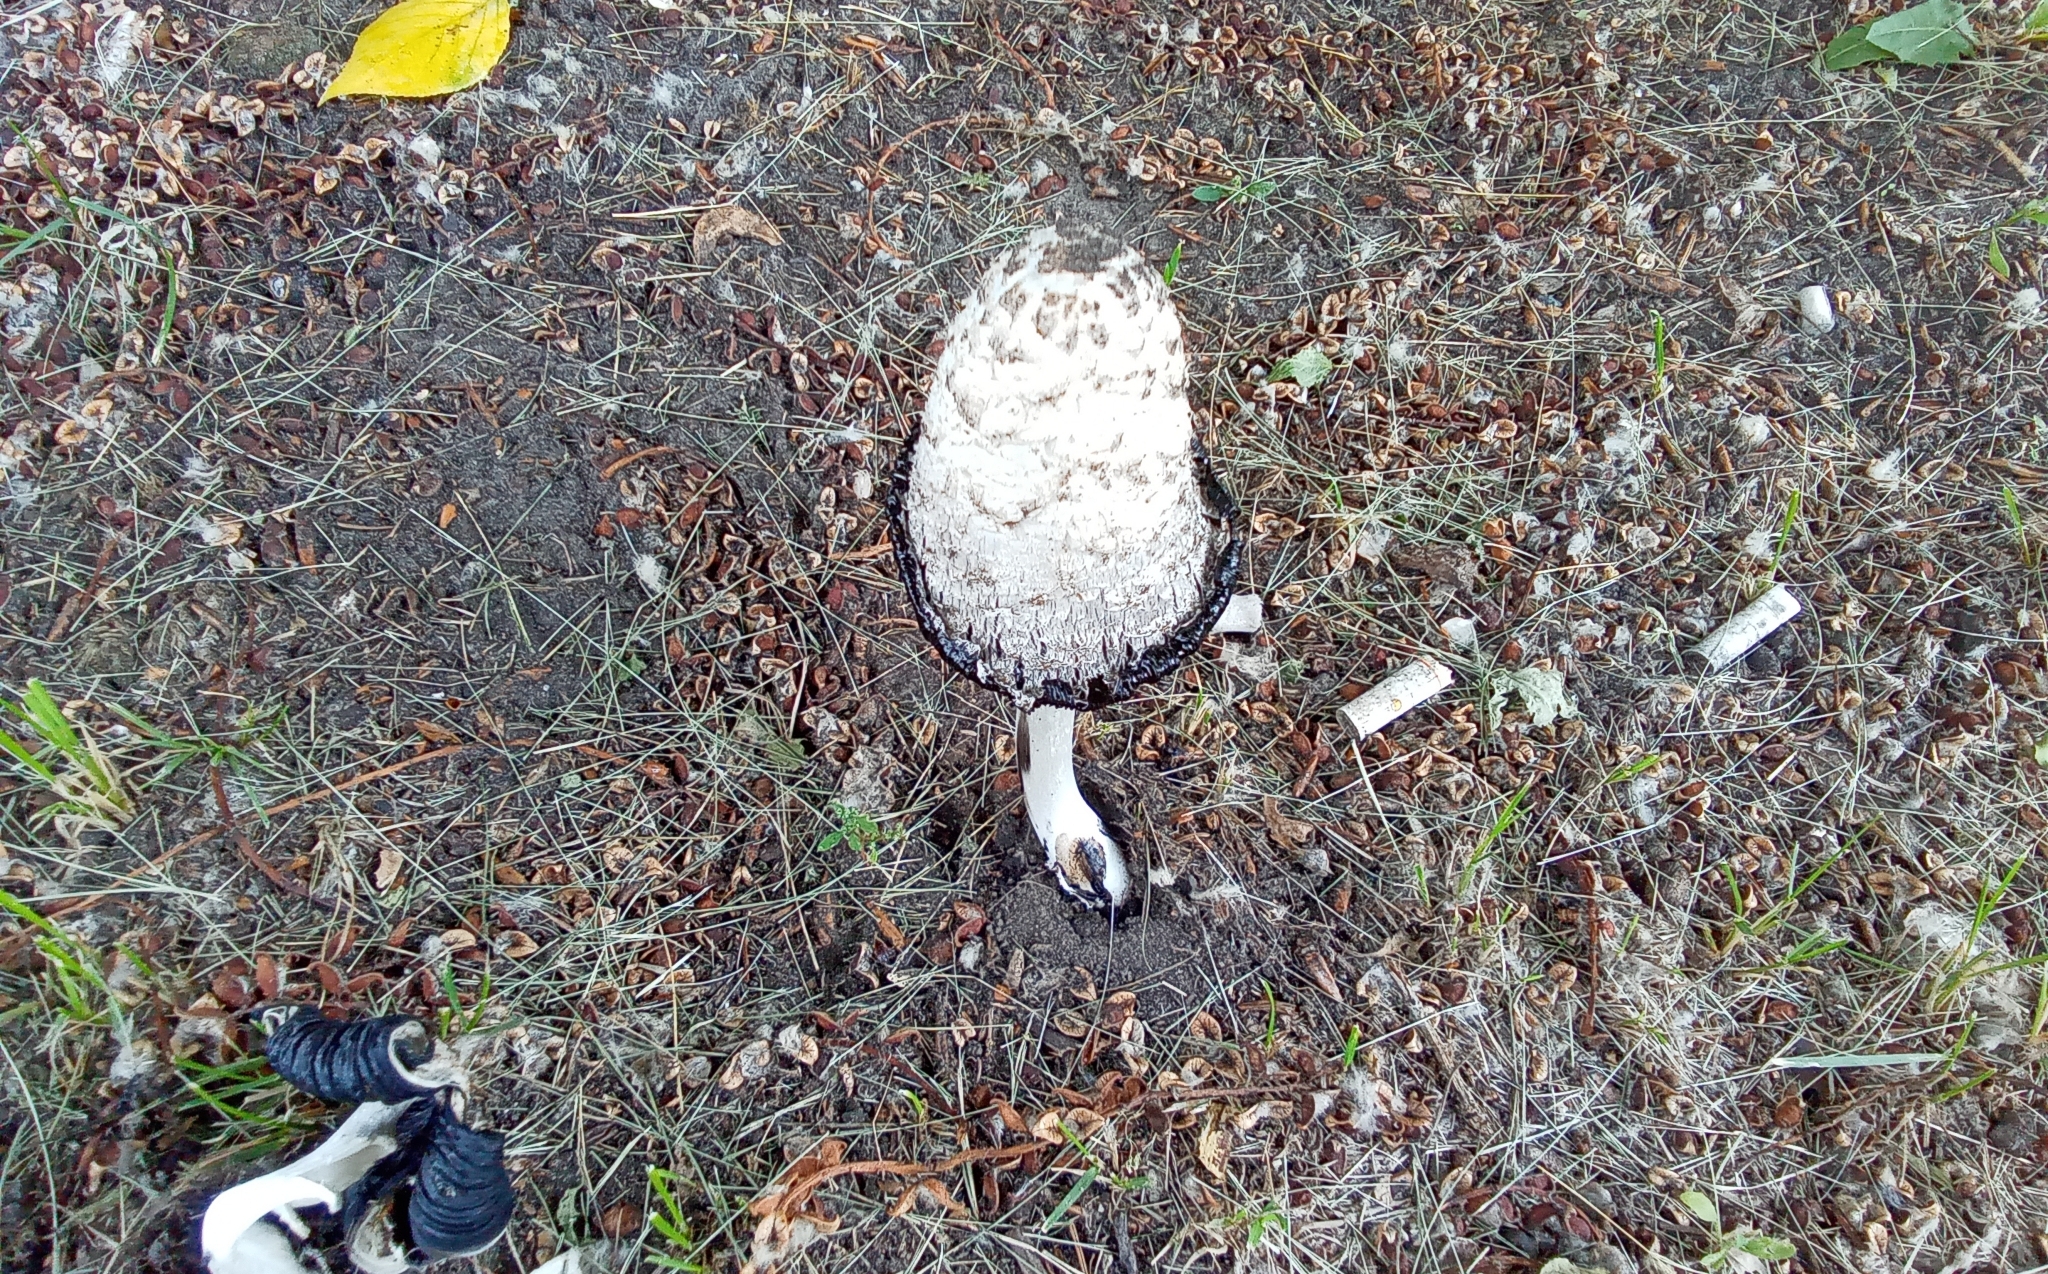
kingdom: Fungi
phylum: Basidiomycota
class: Agaricomycetes
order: Agaricales
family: Agaricaceae
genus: Coprinus
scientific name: Coprinus comatus
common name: Lawyer's wig
